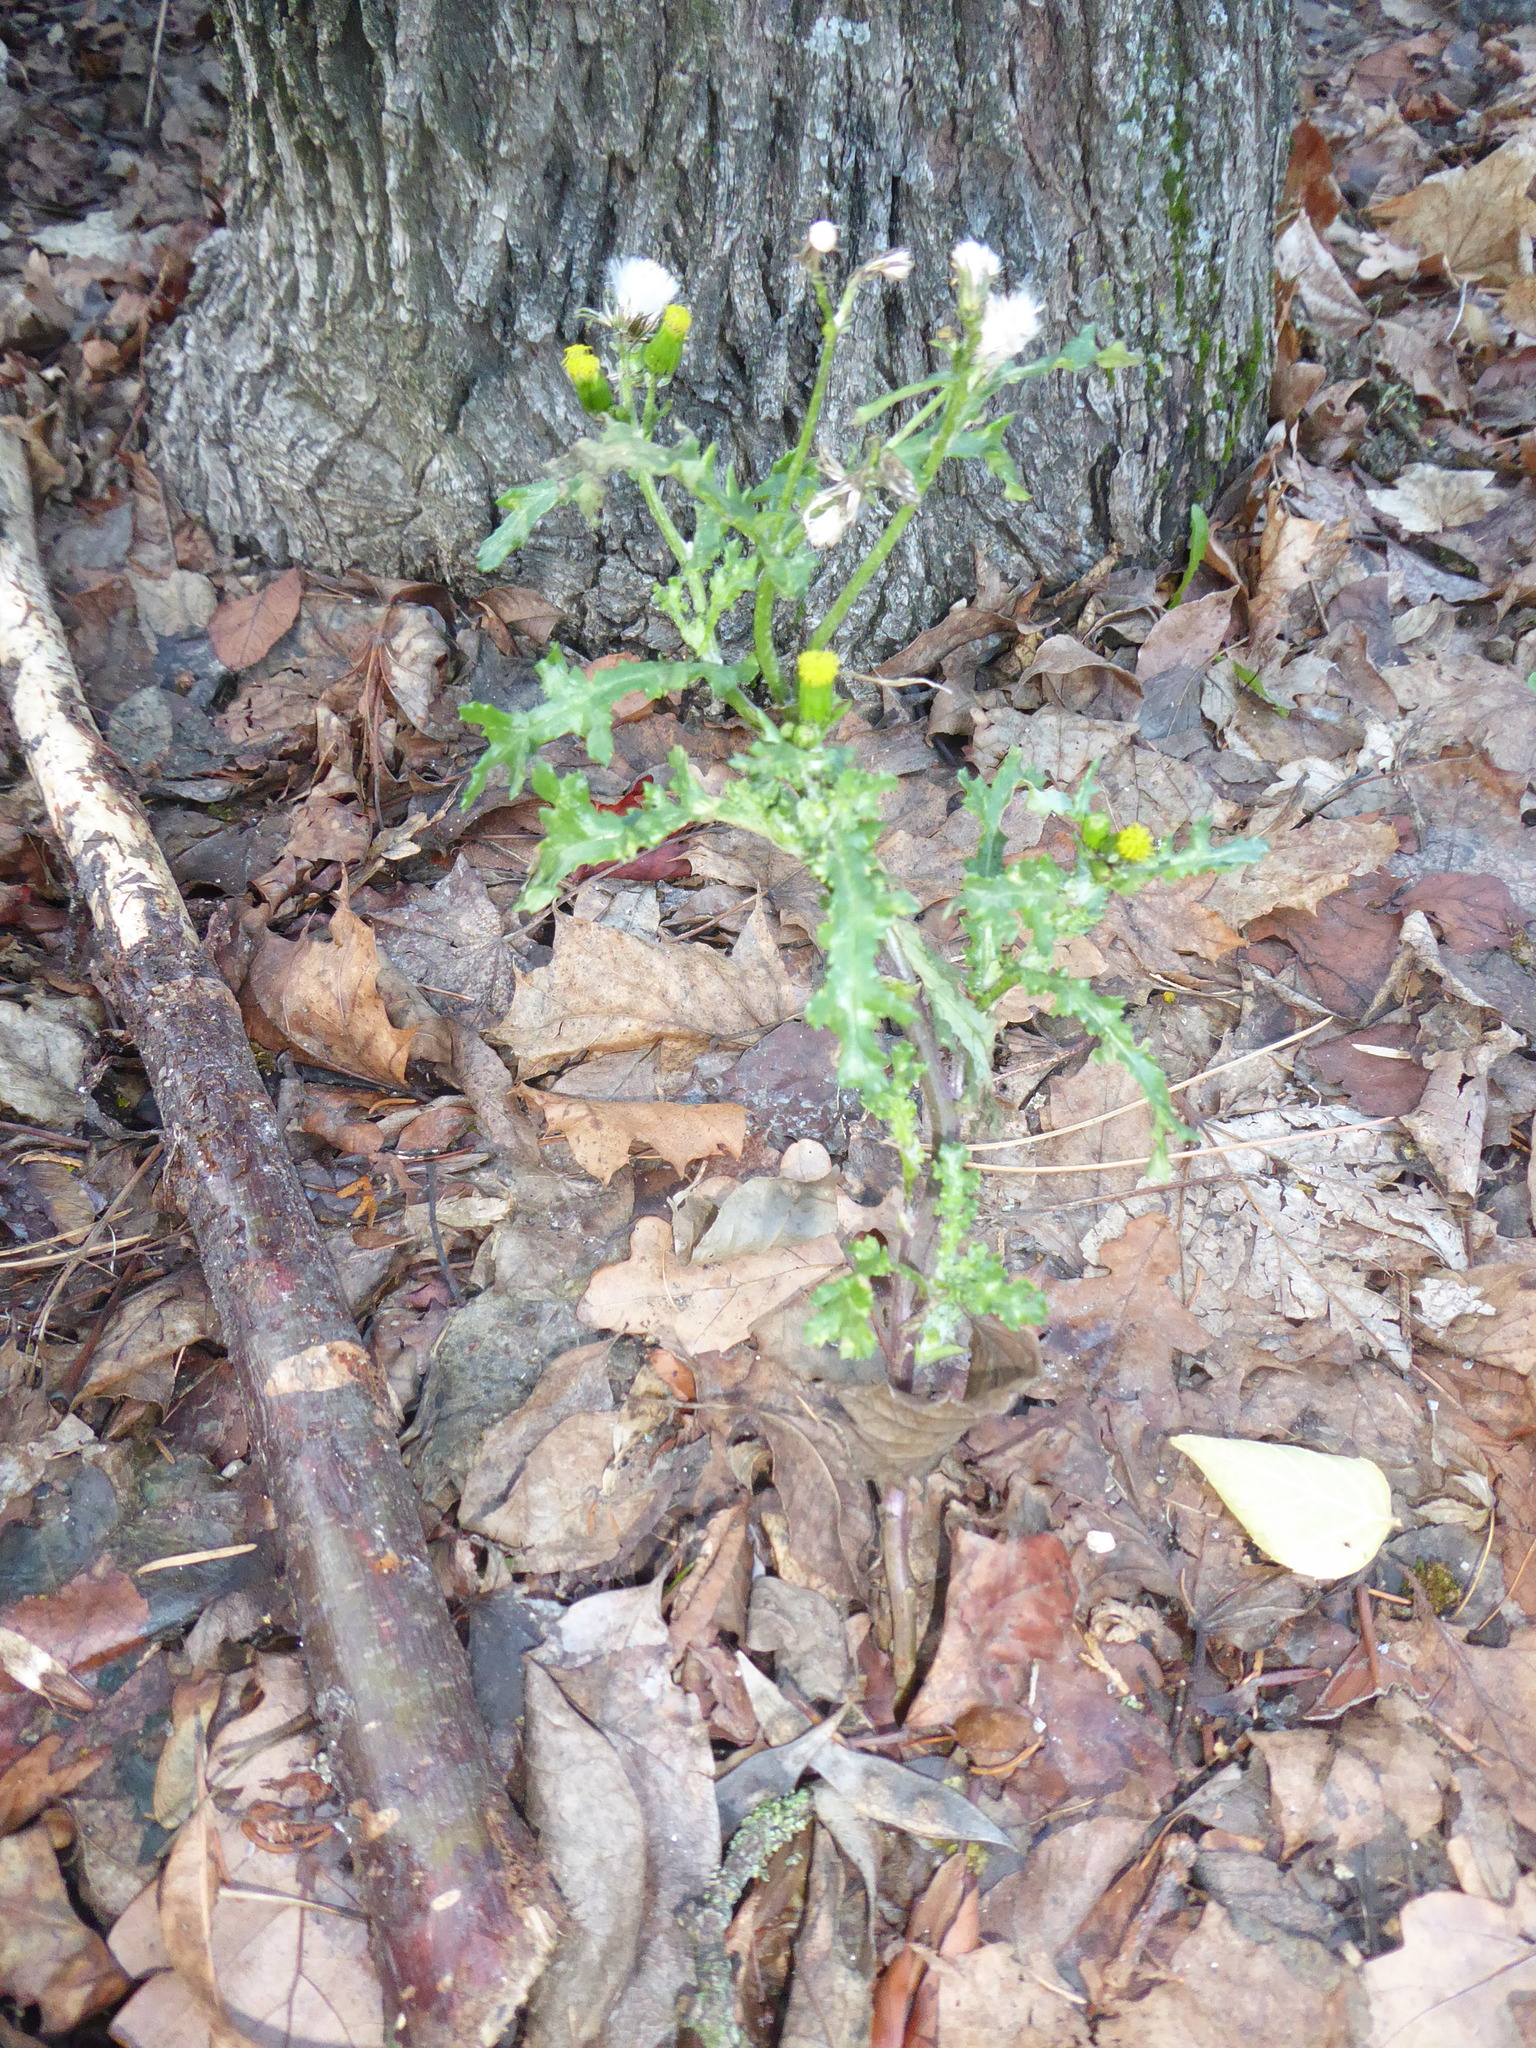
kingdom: Plantae
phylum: Tracheophyta
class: Magnoliopsida
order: Asterales
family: Asteraceae
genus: Senecio
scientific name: Senecio vulgaris
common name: Old-man-in-the-spring
